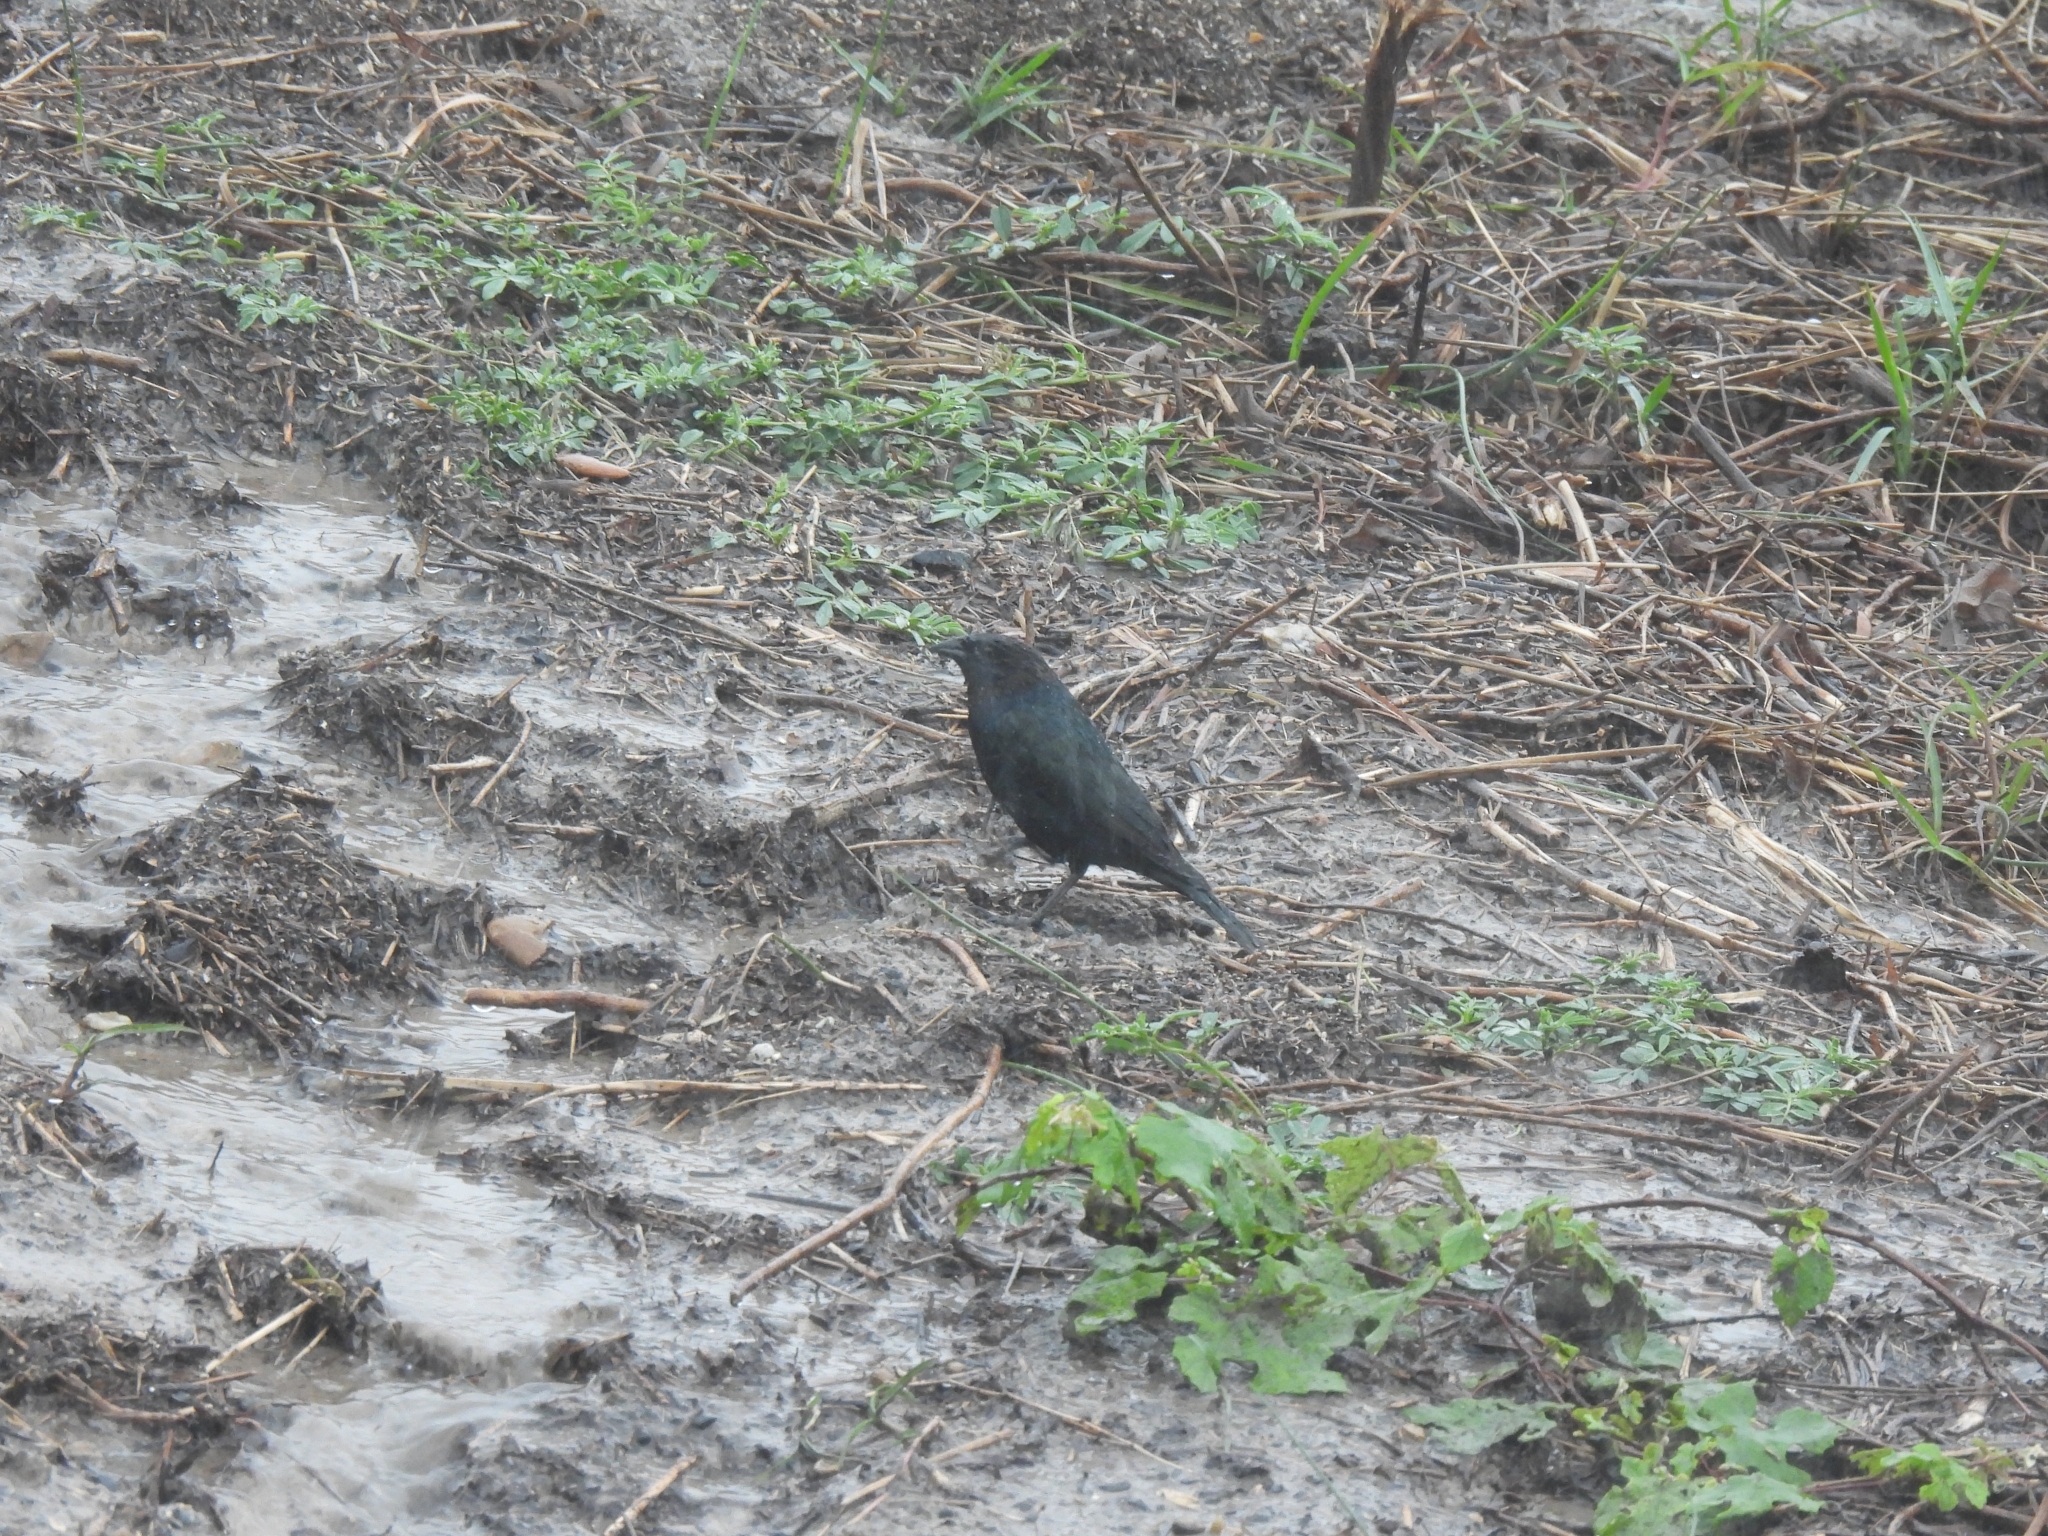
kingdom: Animalia
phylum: Chordata
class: Aves
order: Passeriformes
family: Icteridae
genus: Molothrus
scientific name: Molothrus aeneus
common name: Bronzed cowbird
